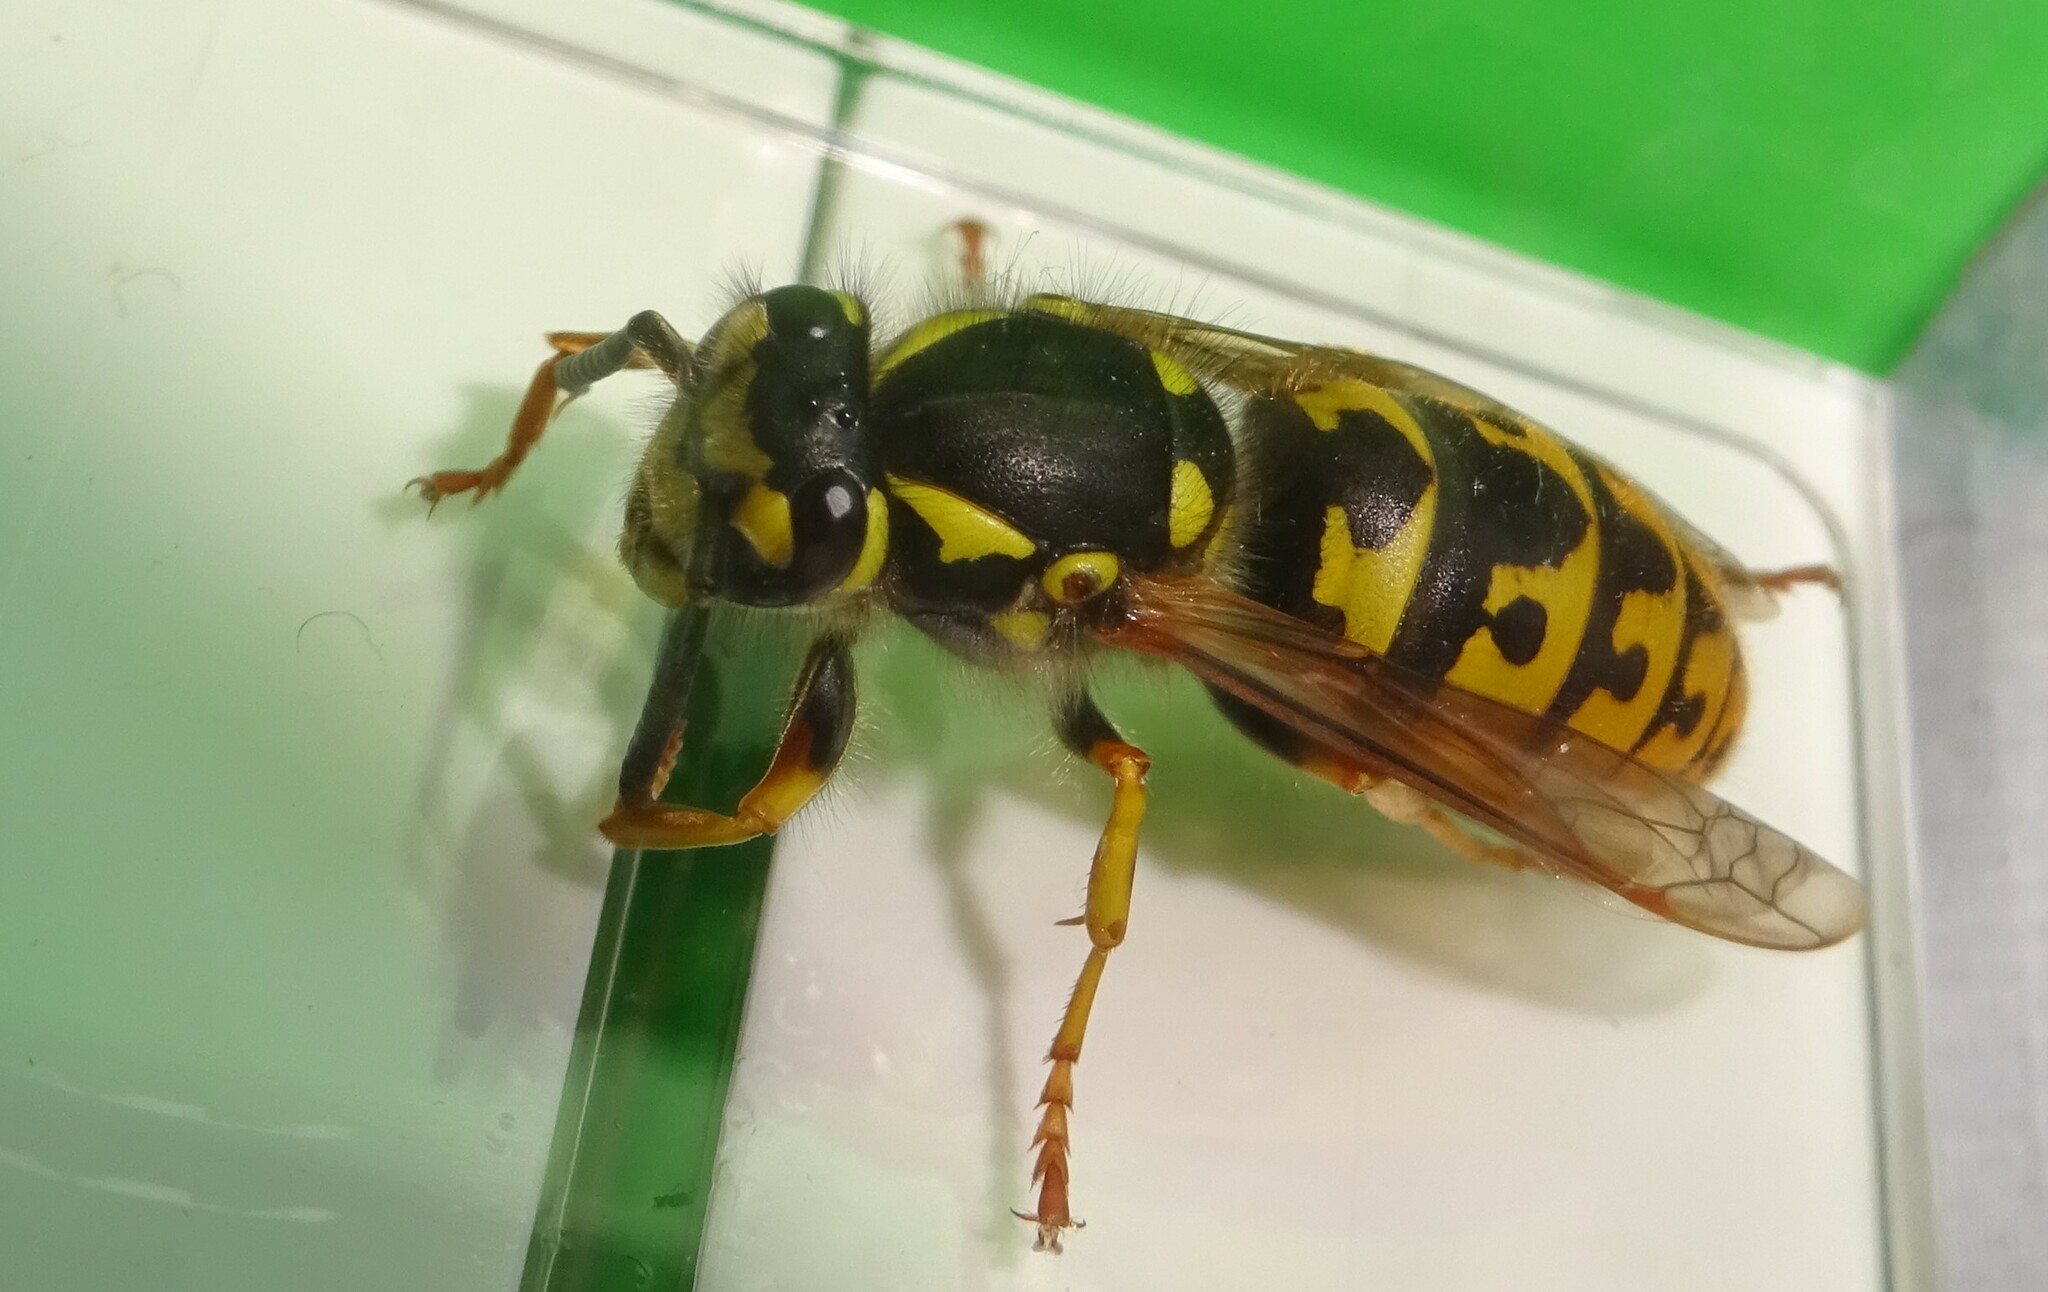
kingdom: Animalia
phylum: Arthropoda
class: Insecta
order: Hymenoptera
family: Vespidae
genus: Vespula
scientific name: Vespula germanica
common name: German wasp
